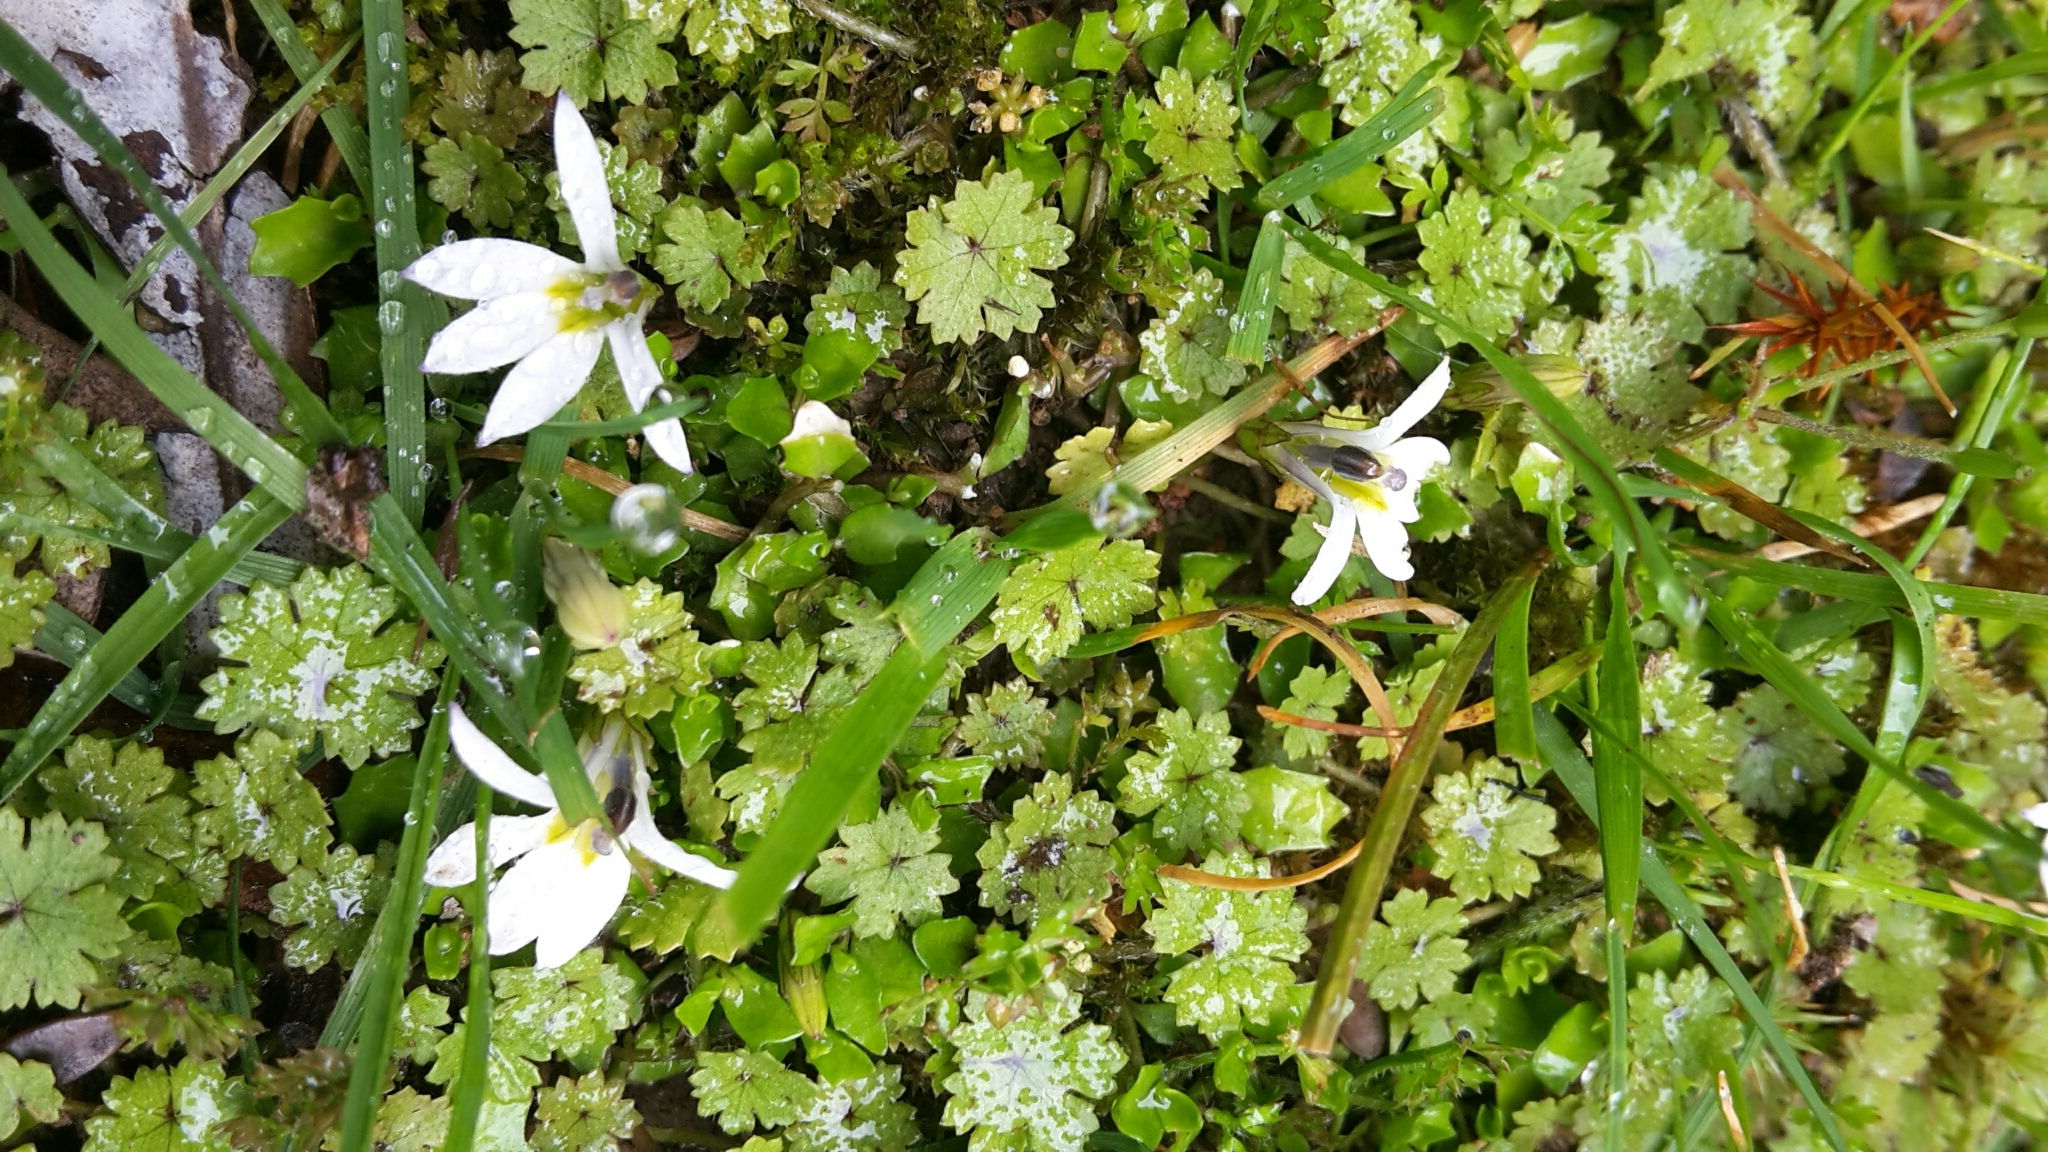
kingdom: Plantae
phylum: Tracheophyta
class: Magnoliopsida
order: Asterales
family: Campanulaceae
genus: Lobelia
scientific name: Lobelia angulata
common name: Lawn lobelia
